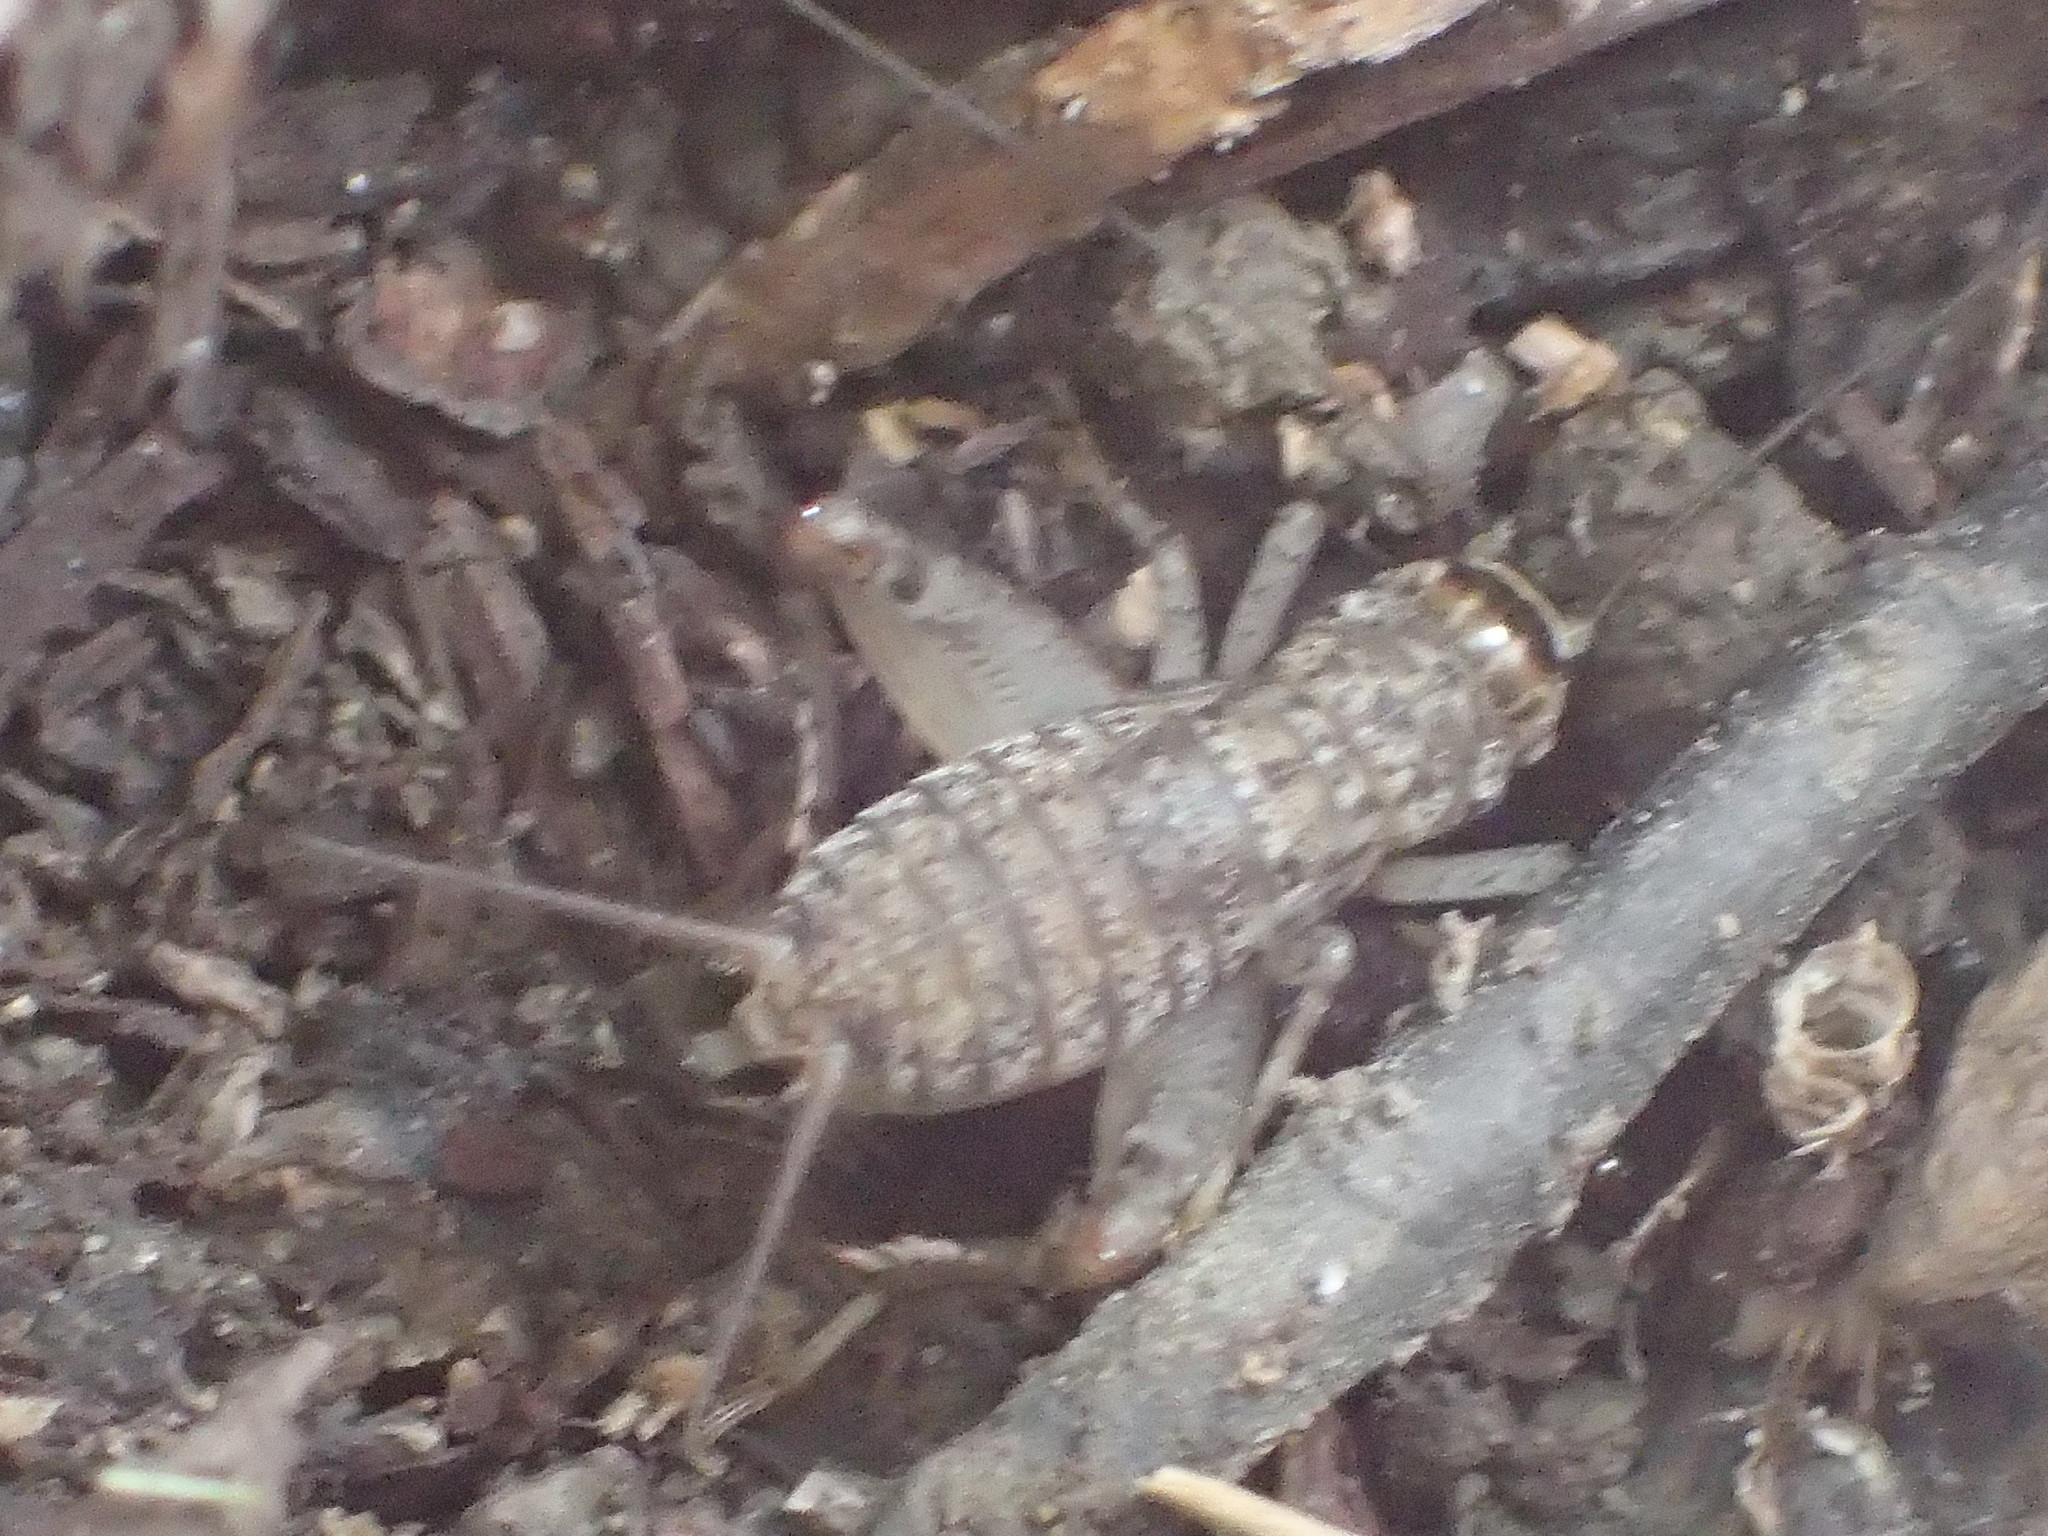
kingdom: Animalia
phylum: Arthropoda
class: Insecta
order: Orthoptera
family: Gryllidae
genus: Velarifictorus
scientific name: Velarifictorus micado
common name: Japanese burrowing cricket
